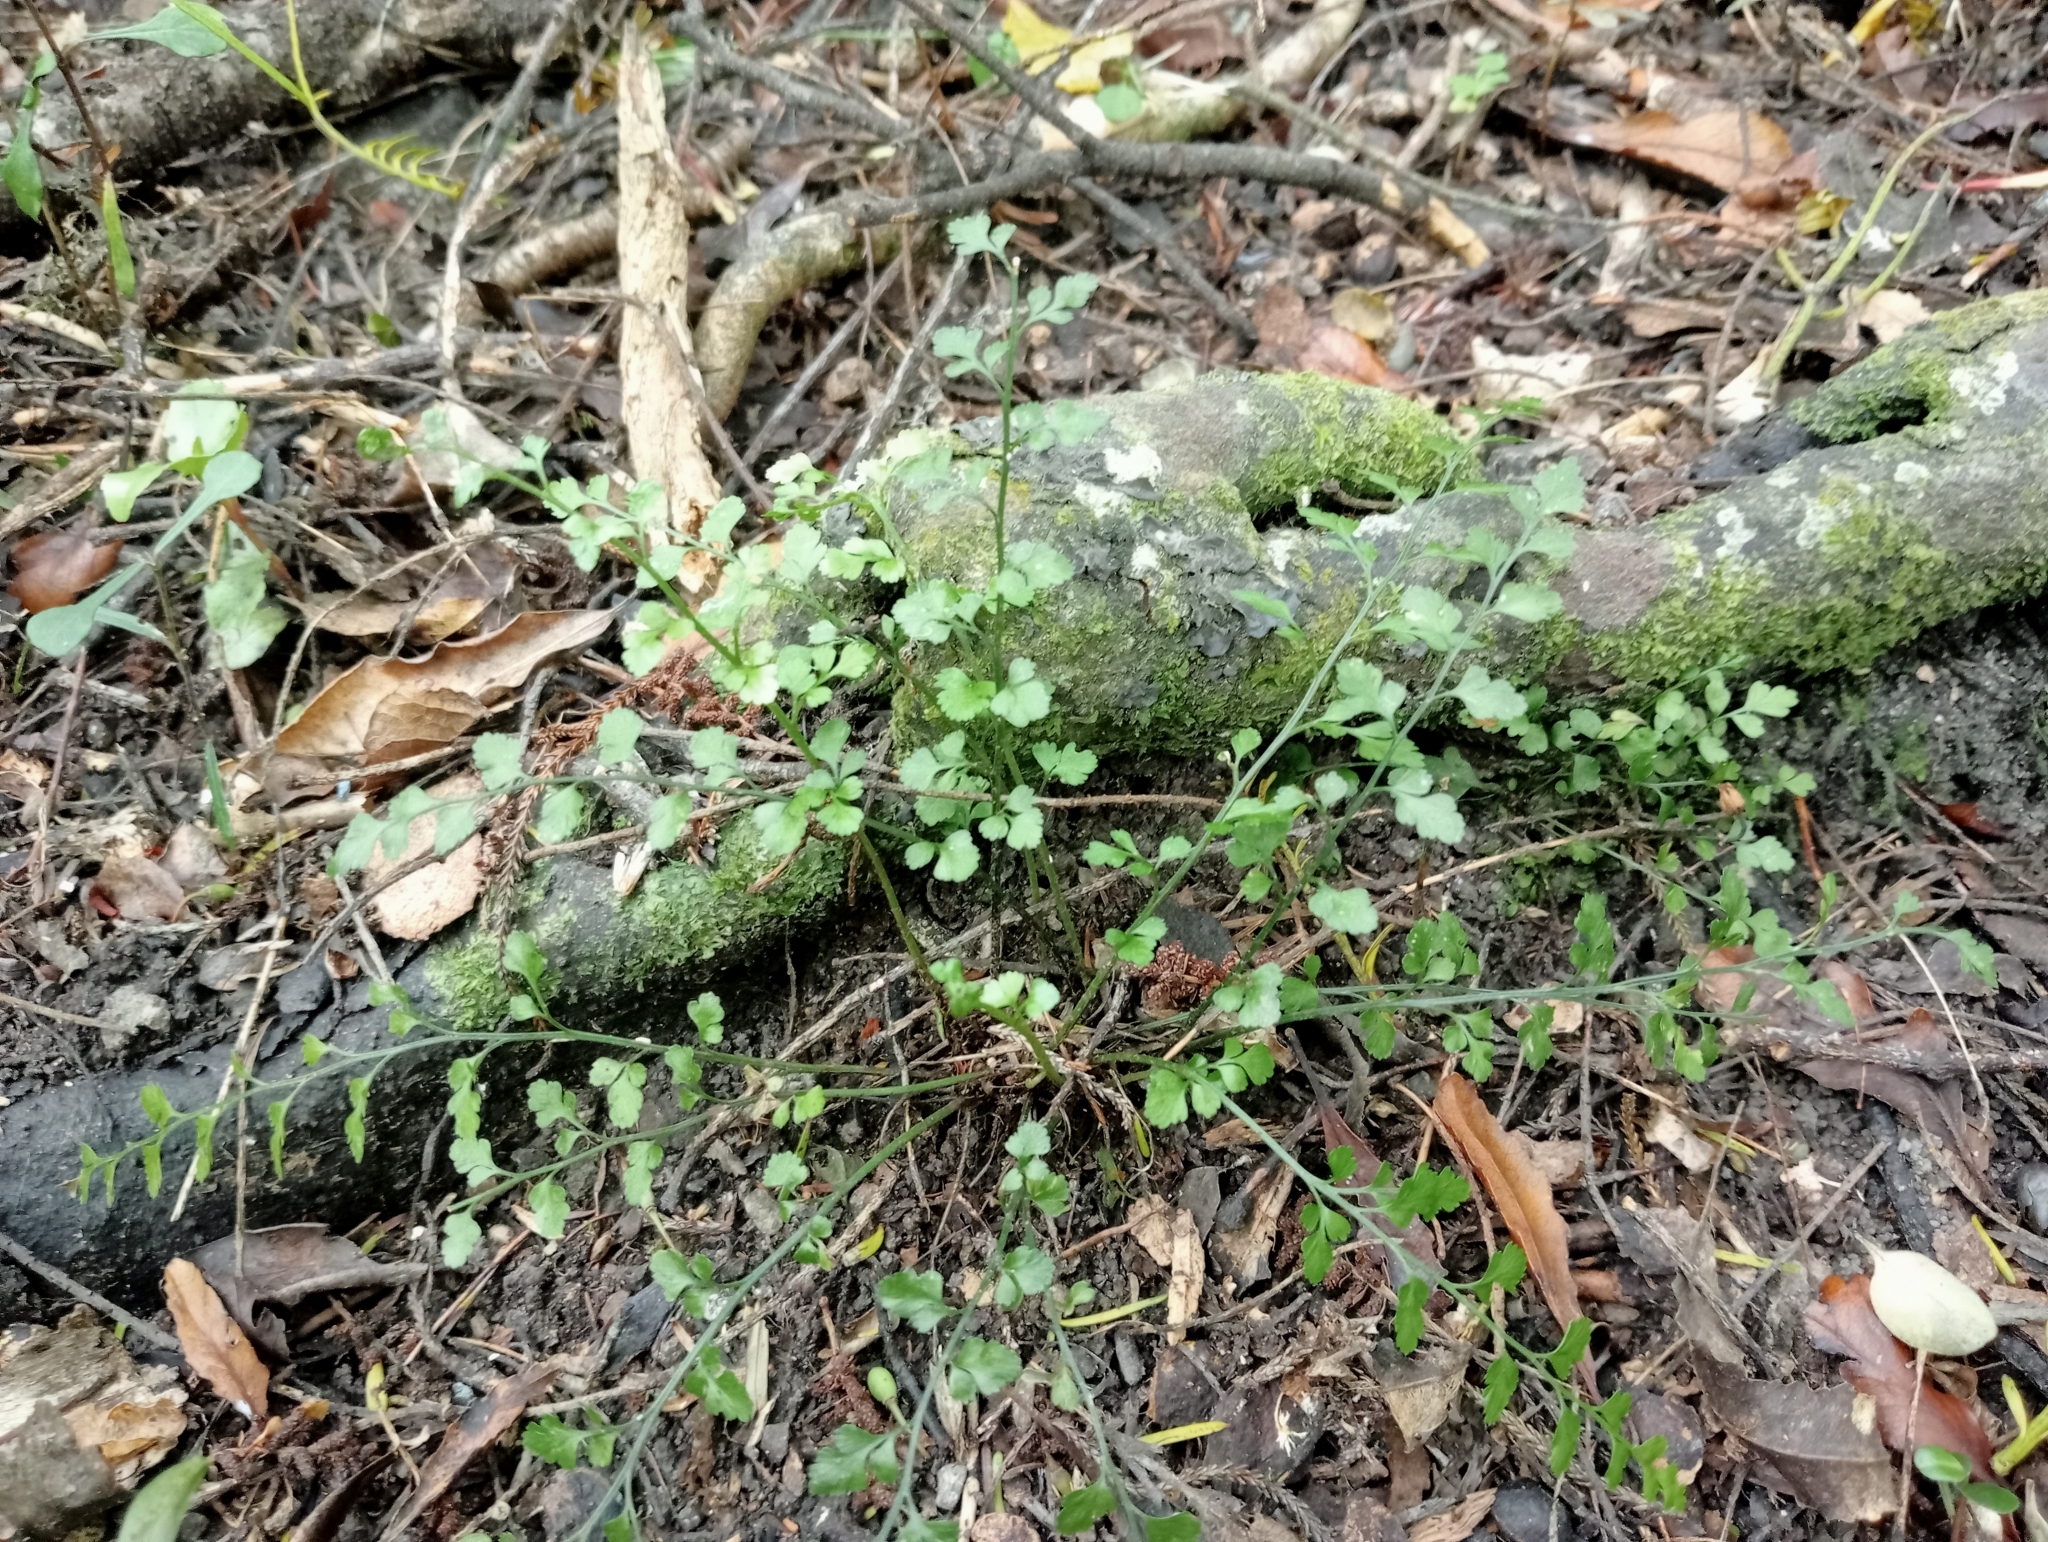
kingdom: Plantae
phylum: Tracheophyta
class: Polypodiopsida
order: Polypodiales
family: Aspleniaceae
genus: Asplenium
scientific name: Asplenium hookerianum
